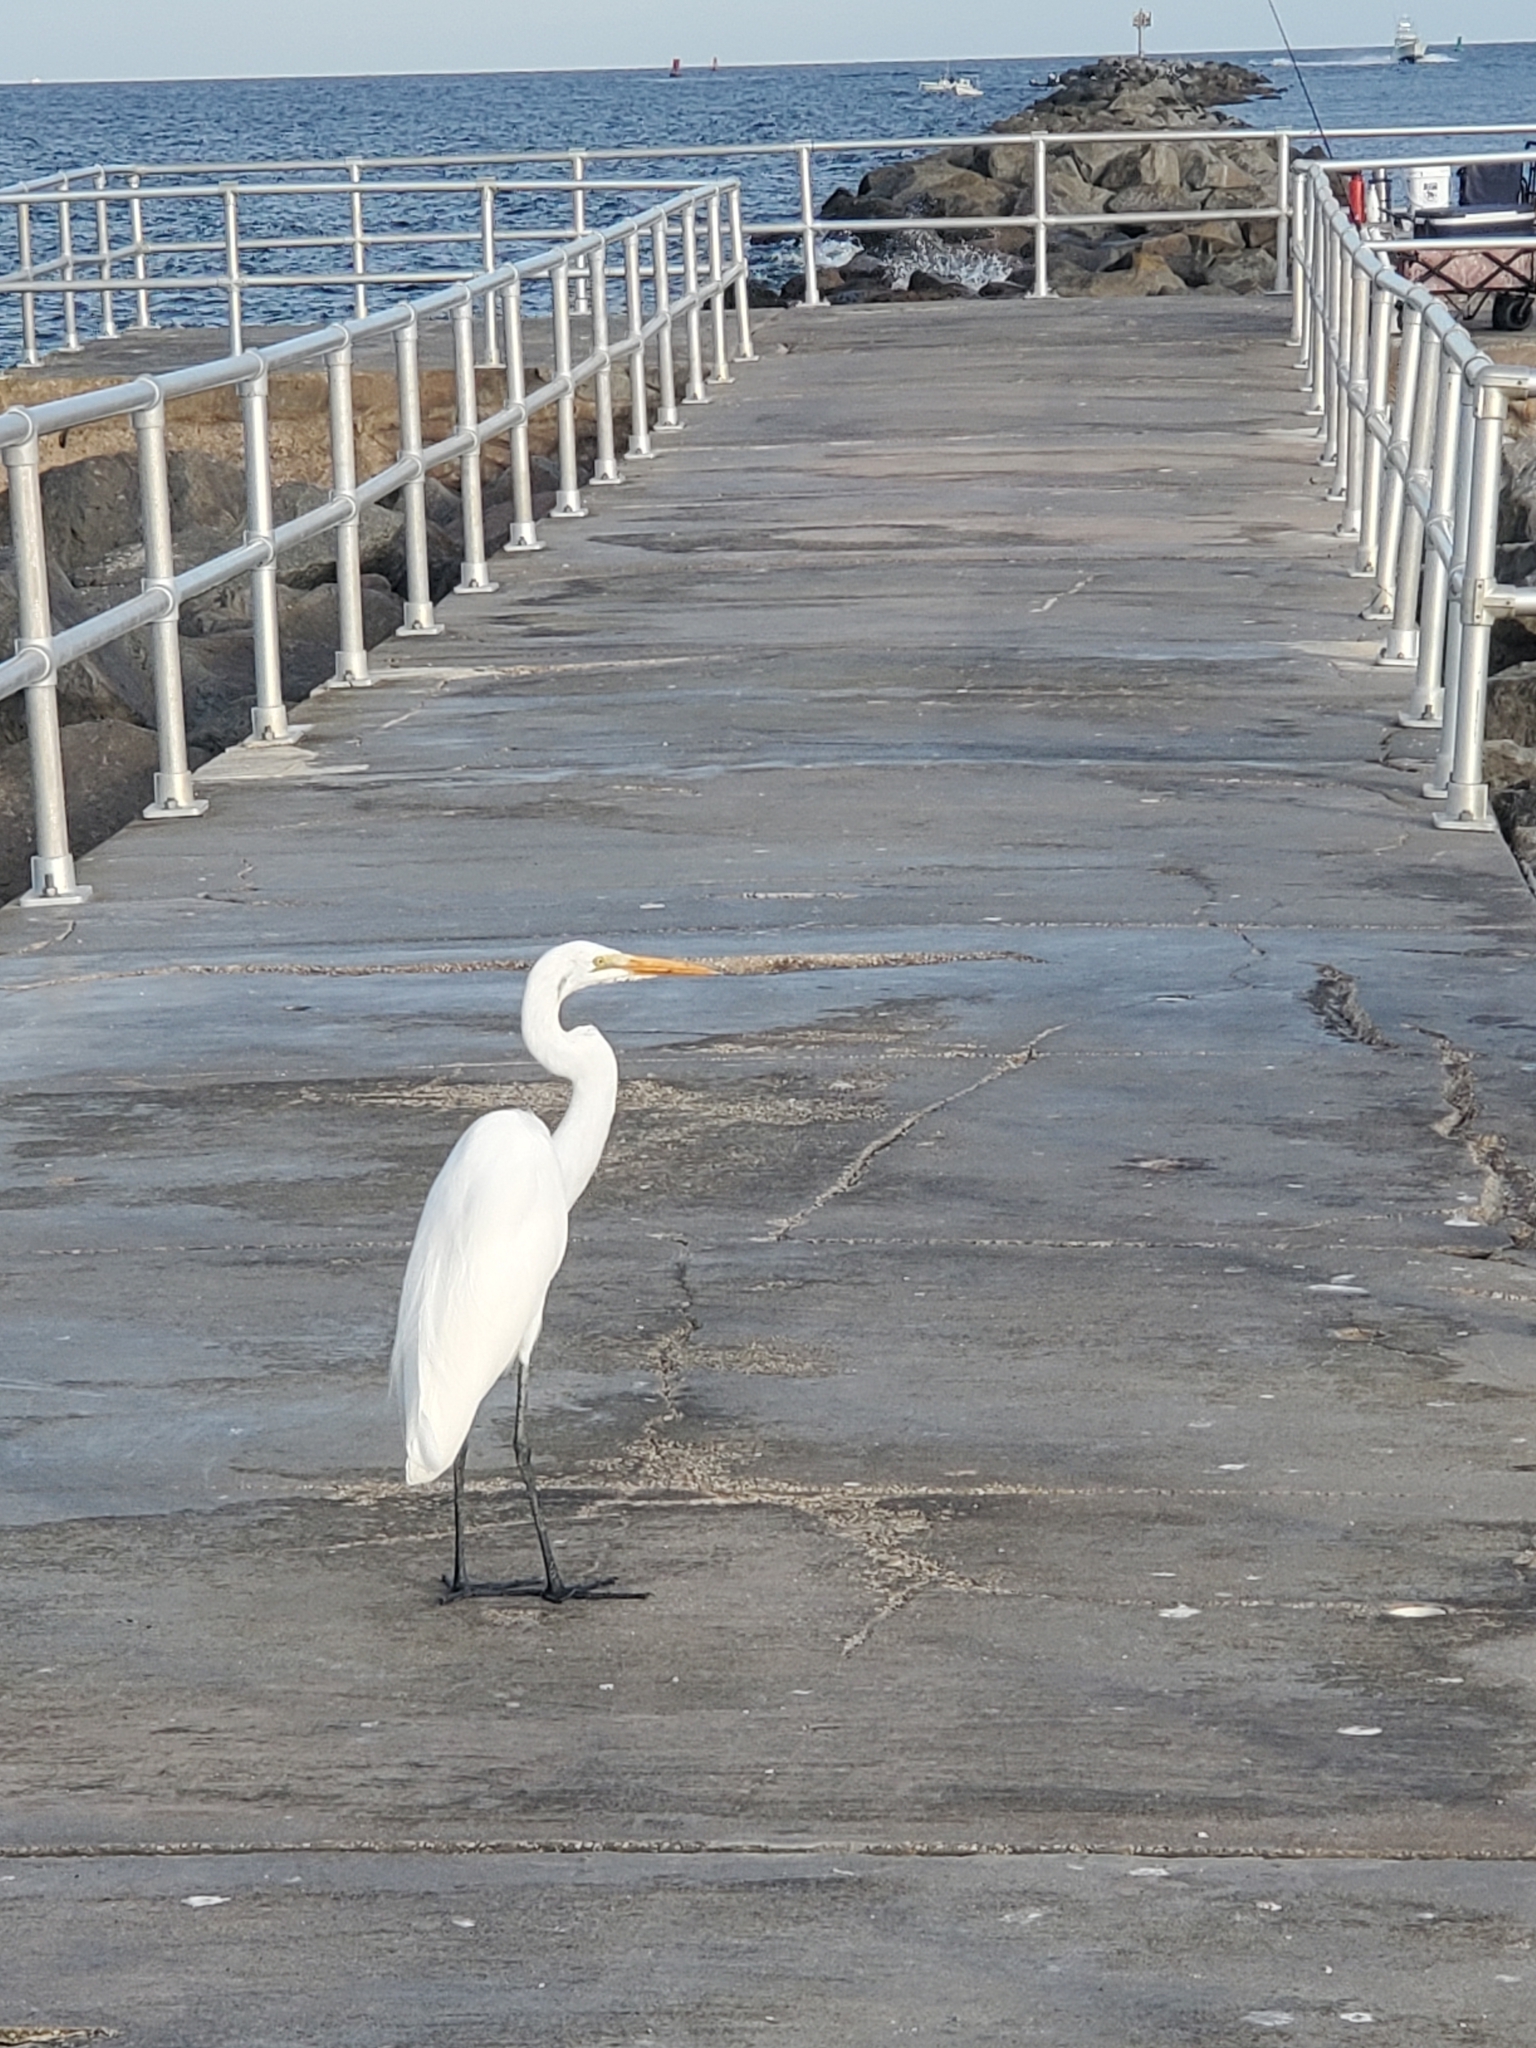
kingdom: Animalia
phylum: Chordata
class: Aves
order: Pelecaniformes
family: Ardeidae
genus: Ardea
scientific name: Ardea alba
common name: Great egret
